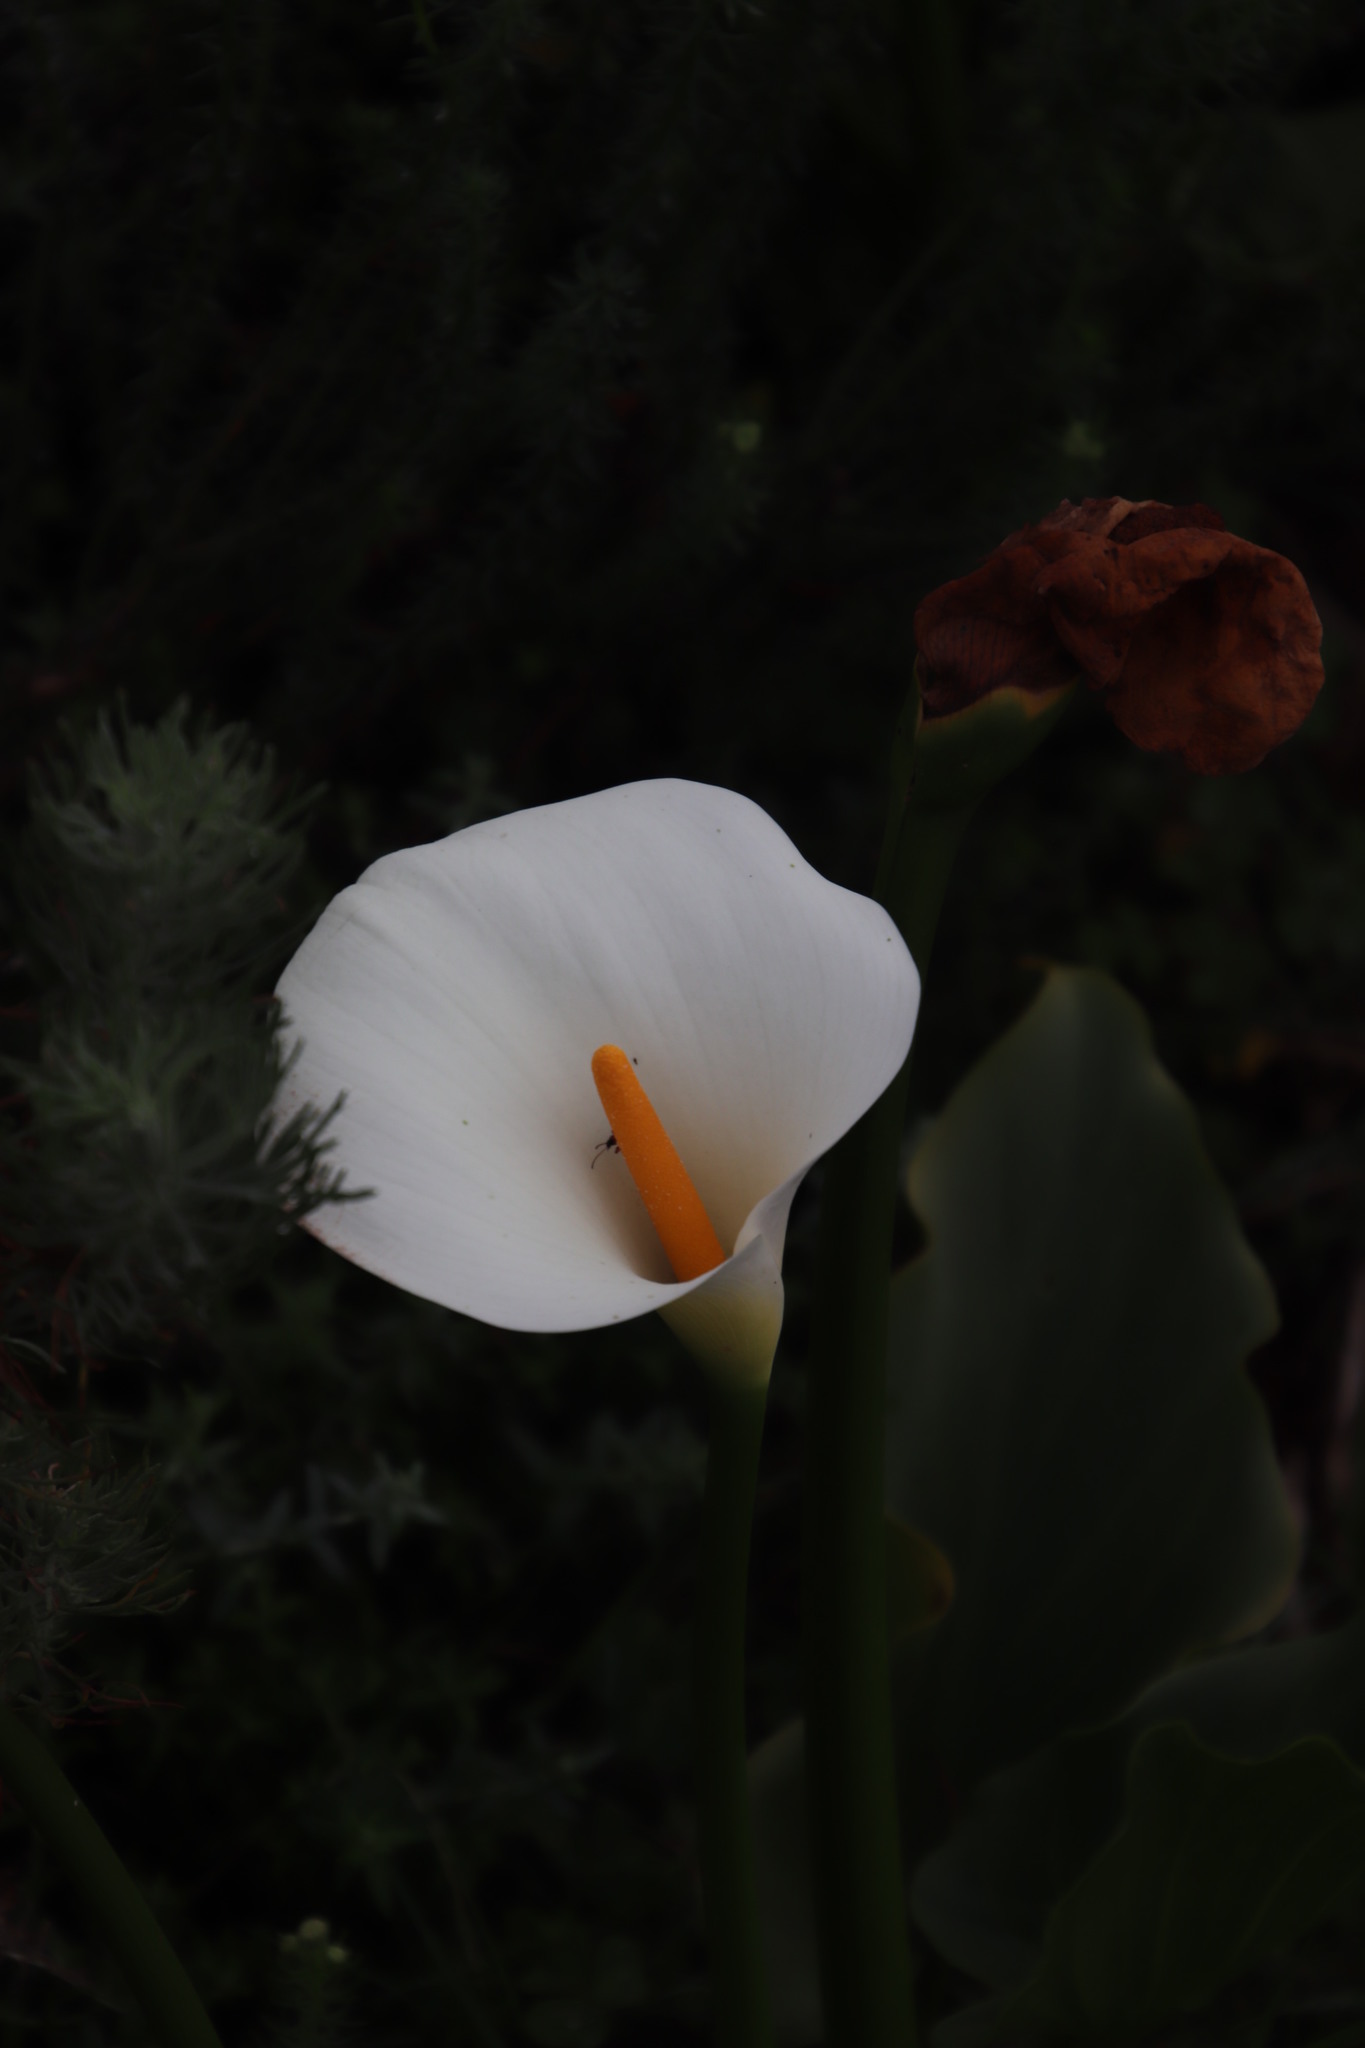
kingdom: Plantae
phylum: Tracheophyta
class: Liliopsida
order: Alismatales
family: Araceae
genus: Zantedeschia
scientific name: Zantedeschia aethiopica
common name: Altar-lily
